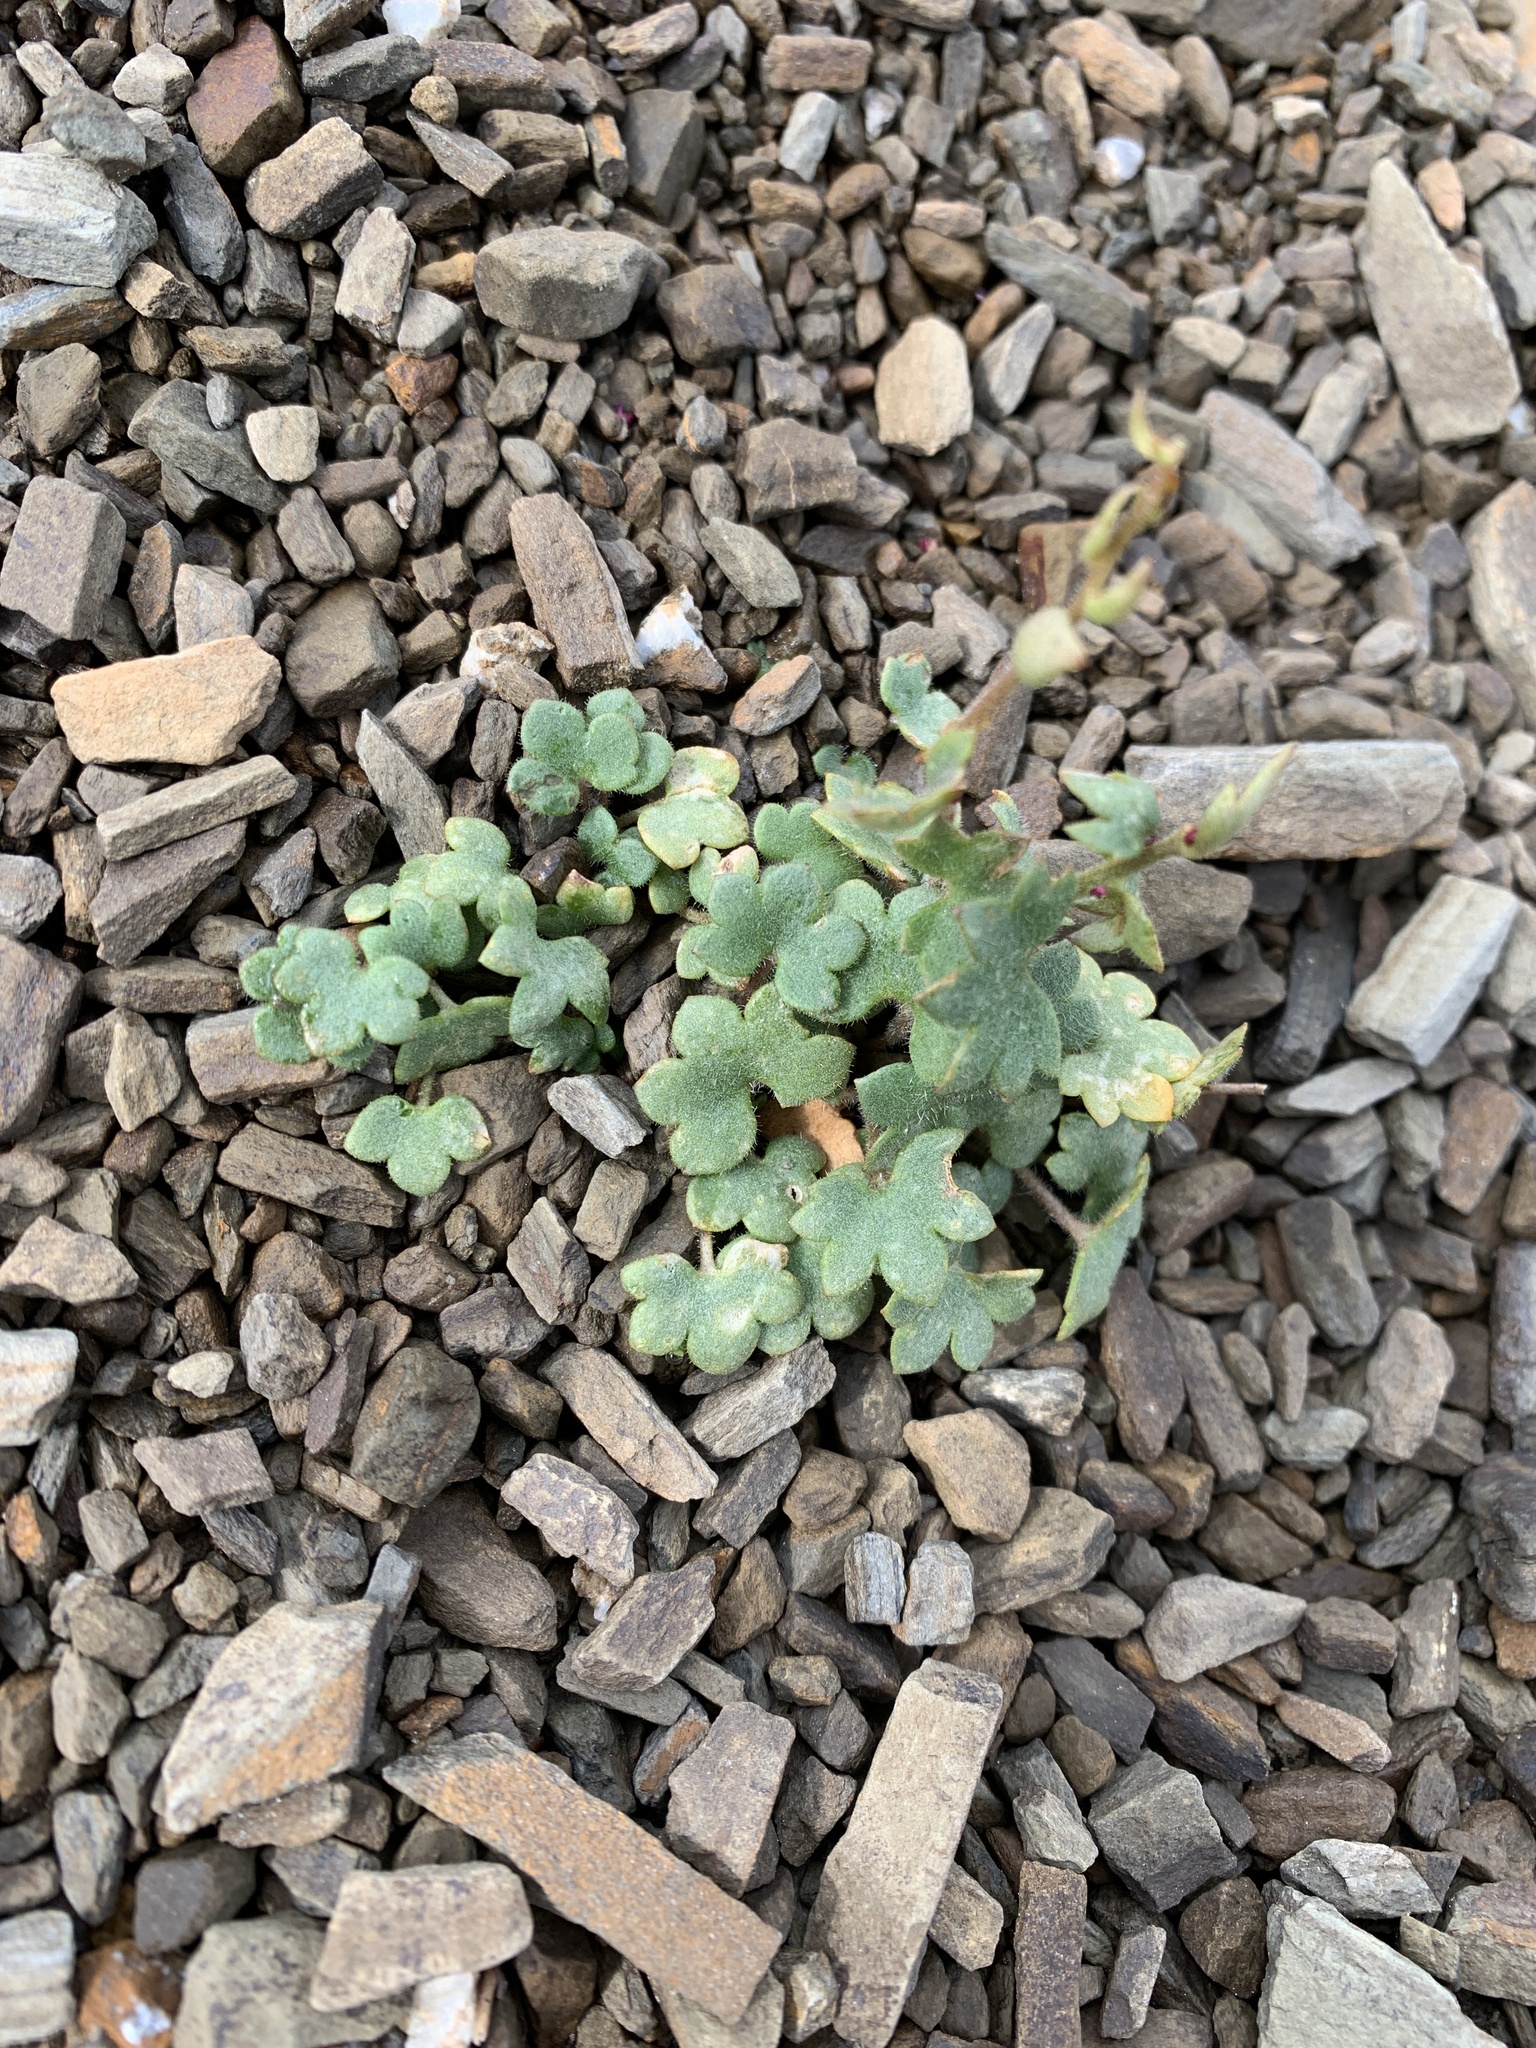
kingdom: Plantae
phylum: Tracheophyta
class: Magnoliopsida
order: Saxifragales
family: Saxifragaceae
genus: Saxifraga
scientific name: Saxifraga cernua
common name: Drooping saxifrage
